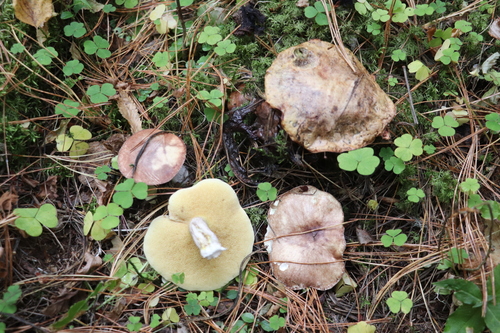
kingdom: Fungi
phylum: Basidiomycota
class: Agaricomycetes
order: Boletales
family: Suillaceae
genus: Suillus
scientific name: Suillus placidus
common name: Slippery white bolete
